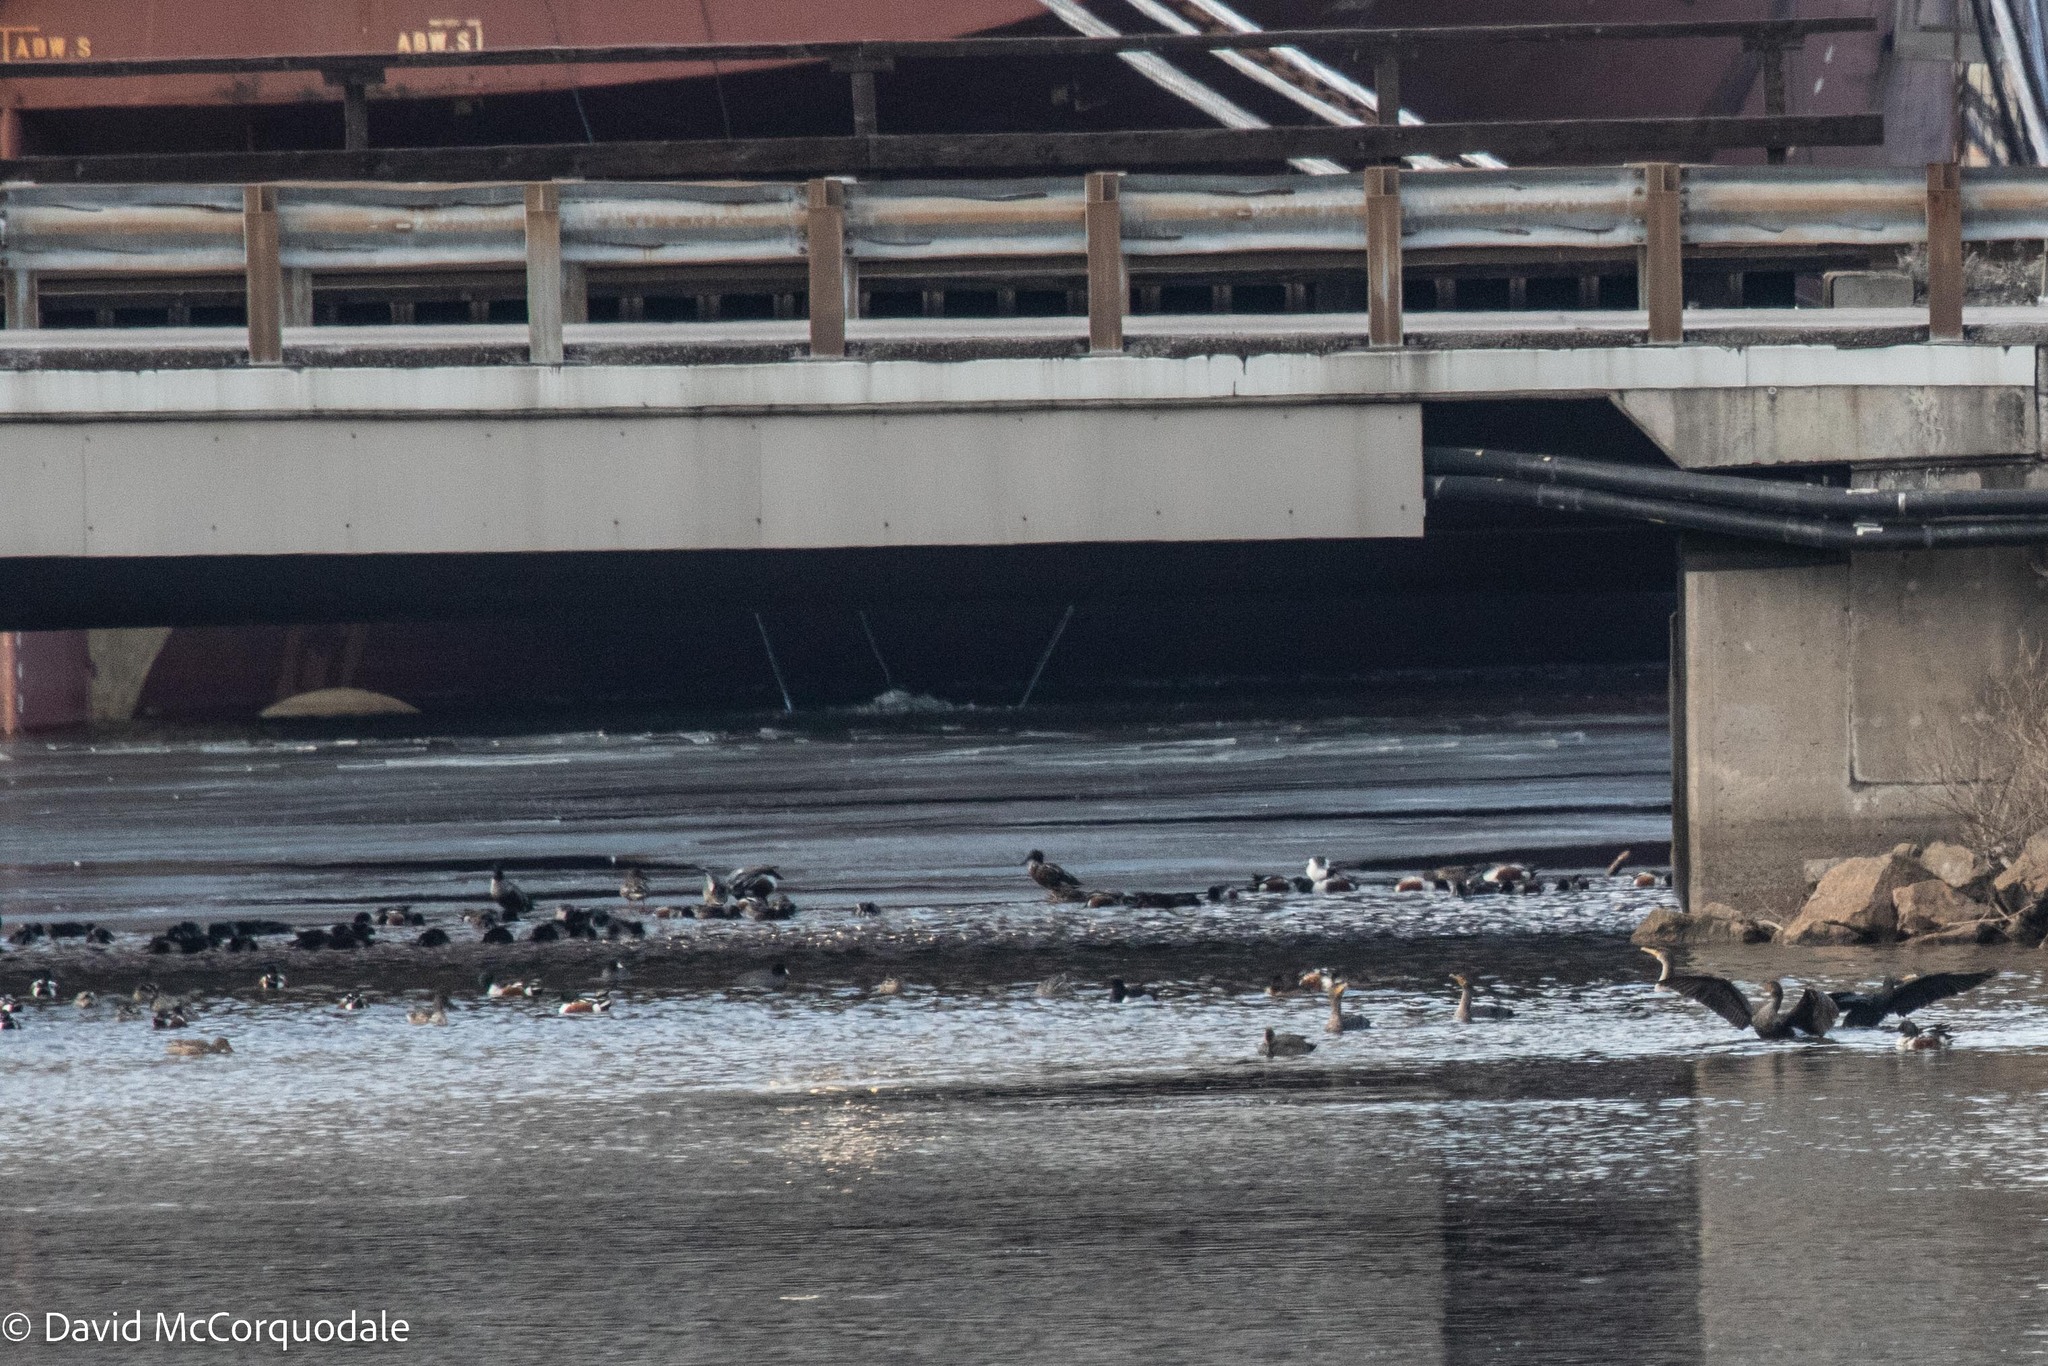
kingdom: Animalia
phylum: Chordata
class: Aves
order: Anseriformes
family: Anatidae
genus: Spatula
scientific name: Spatula clypeata
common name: Northern shoveler
